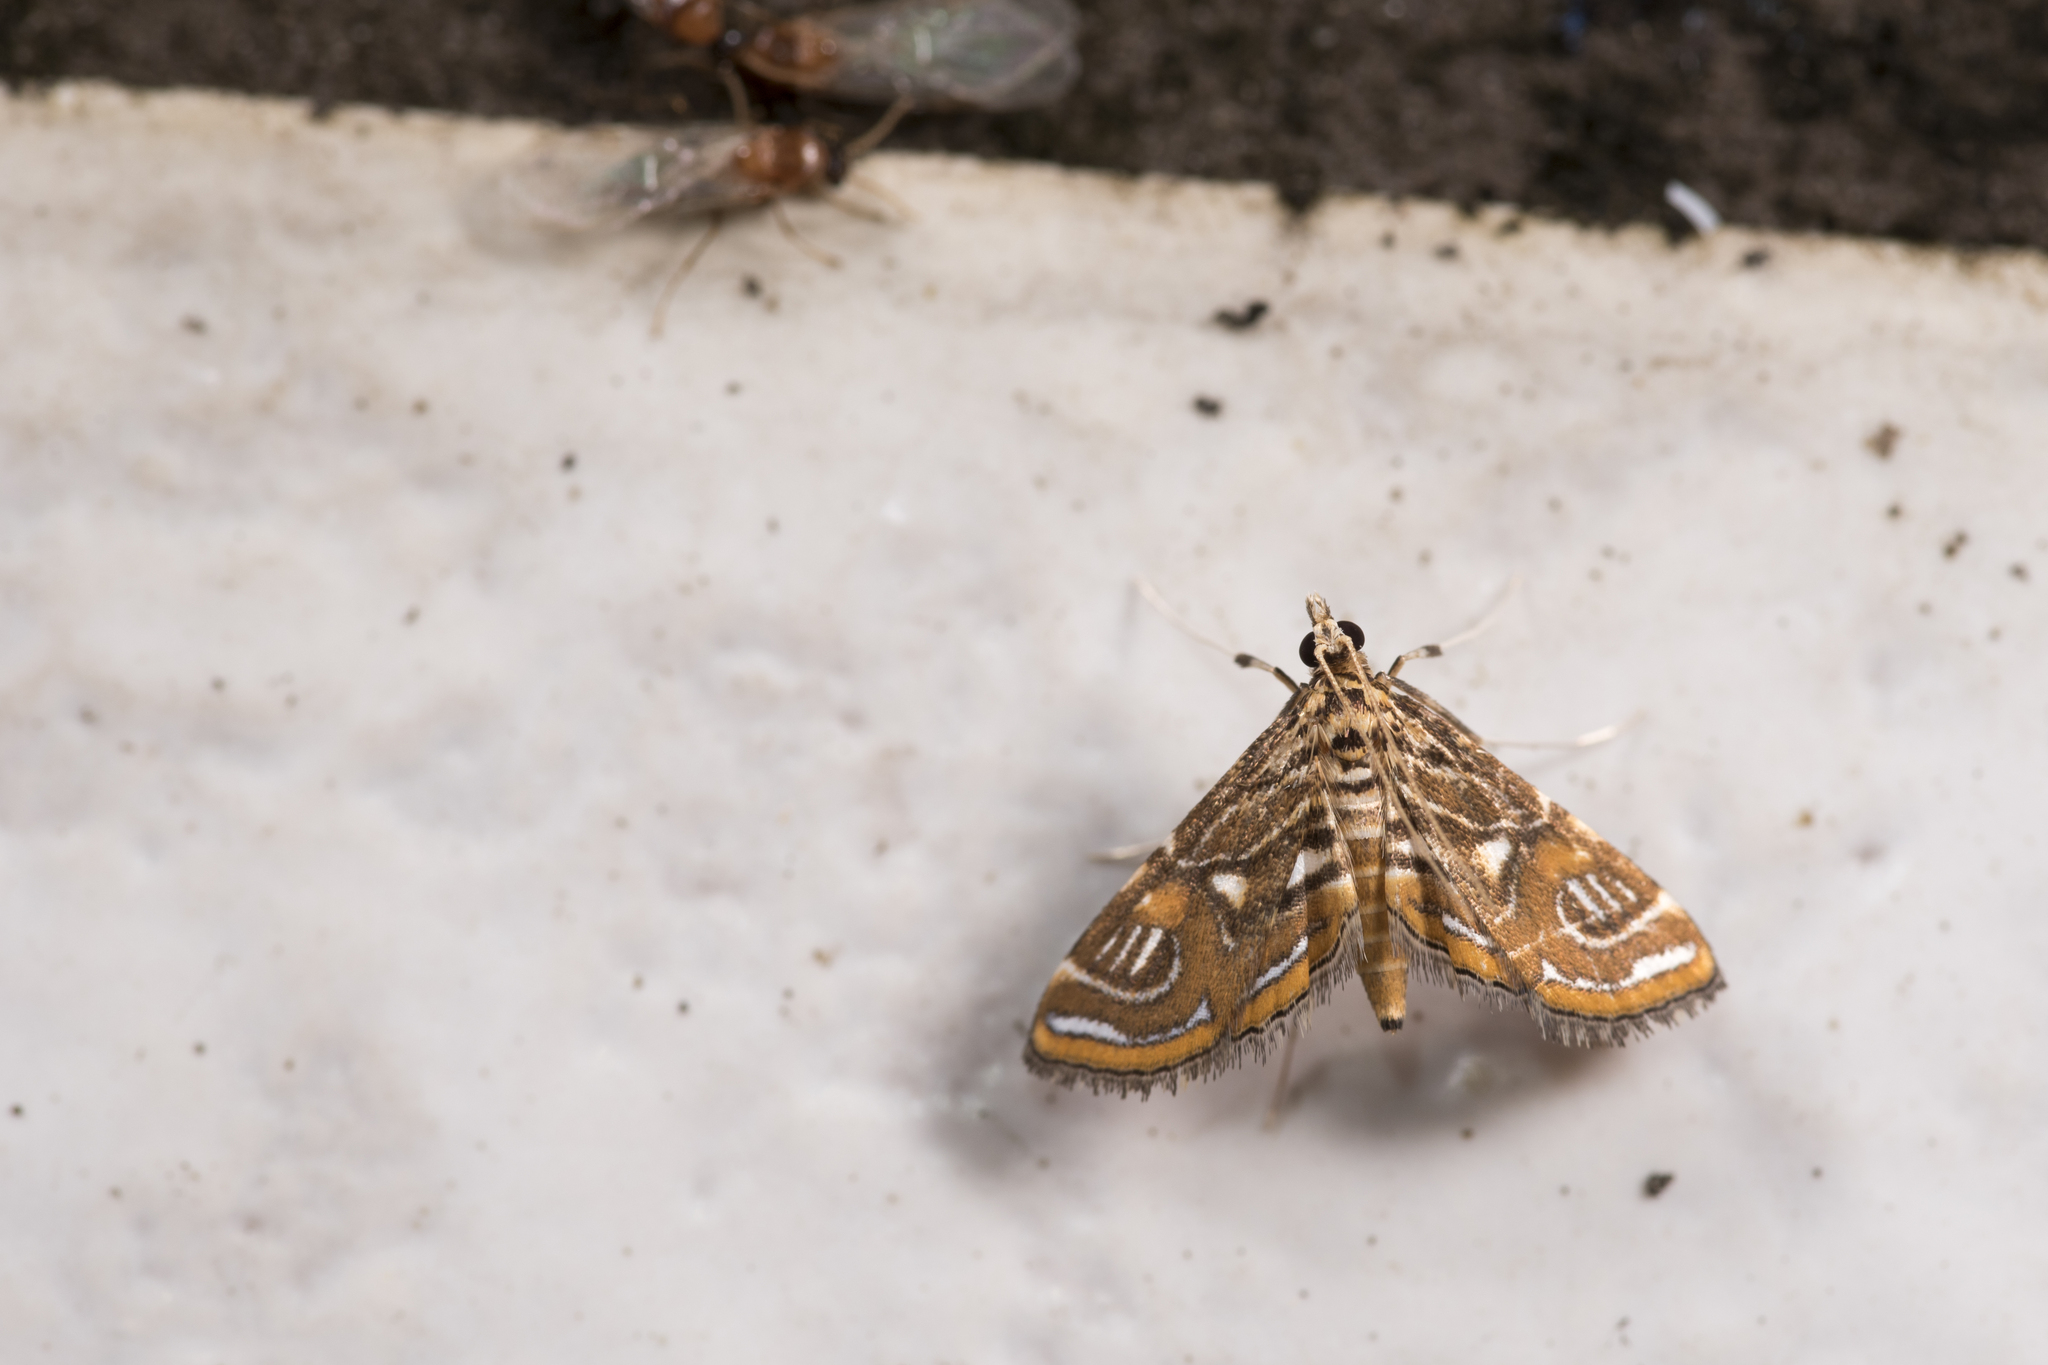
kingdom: Animalia
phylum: Arthropoda
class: Insecta
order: Lepidoptera
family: Crambidae
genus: Paracymoriza
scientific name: Paracymoriza cataclystalis
